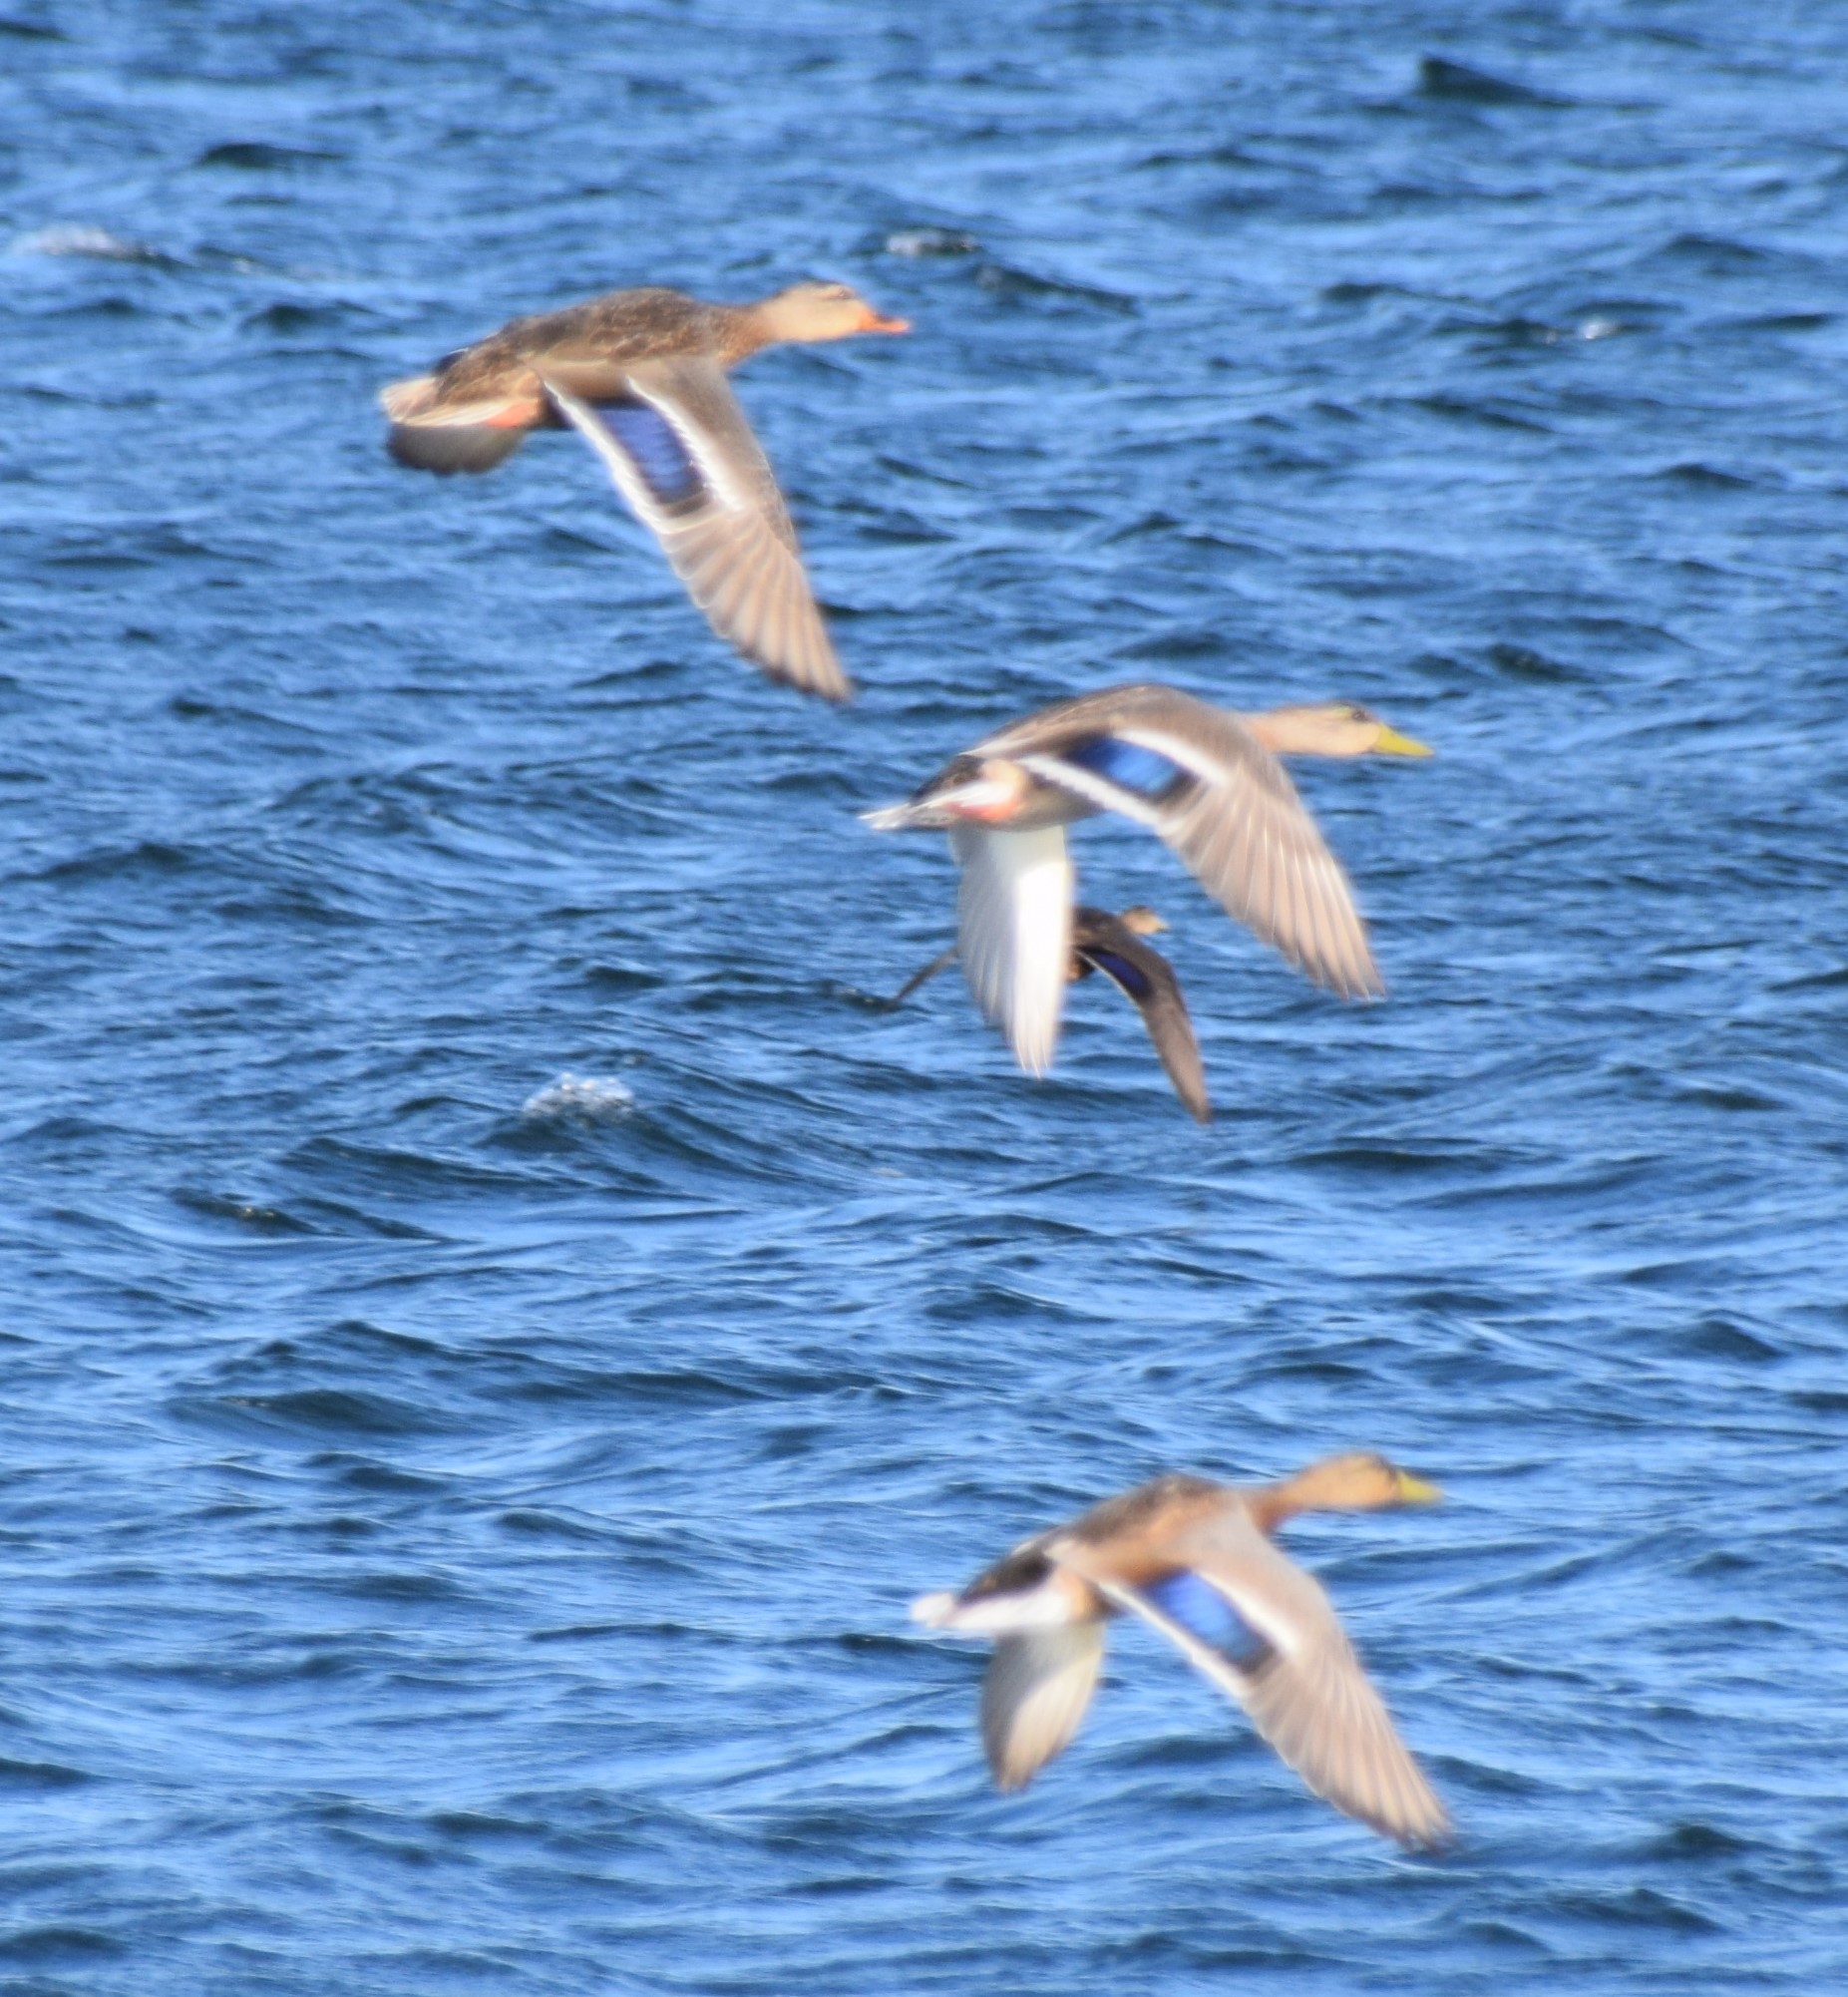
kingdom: Animalia
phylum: Chordata
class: Aves
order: Anseriformes
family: Anatidae
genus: Anas
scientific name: Anas platyrhynchos
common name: Mallard
